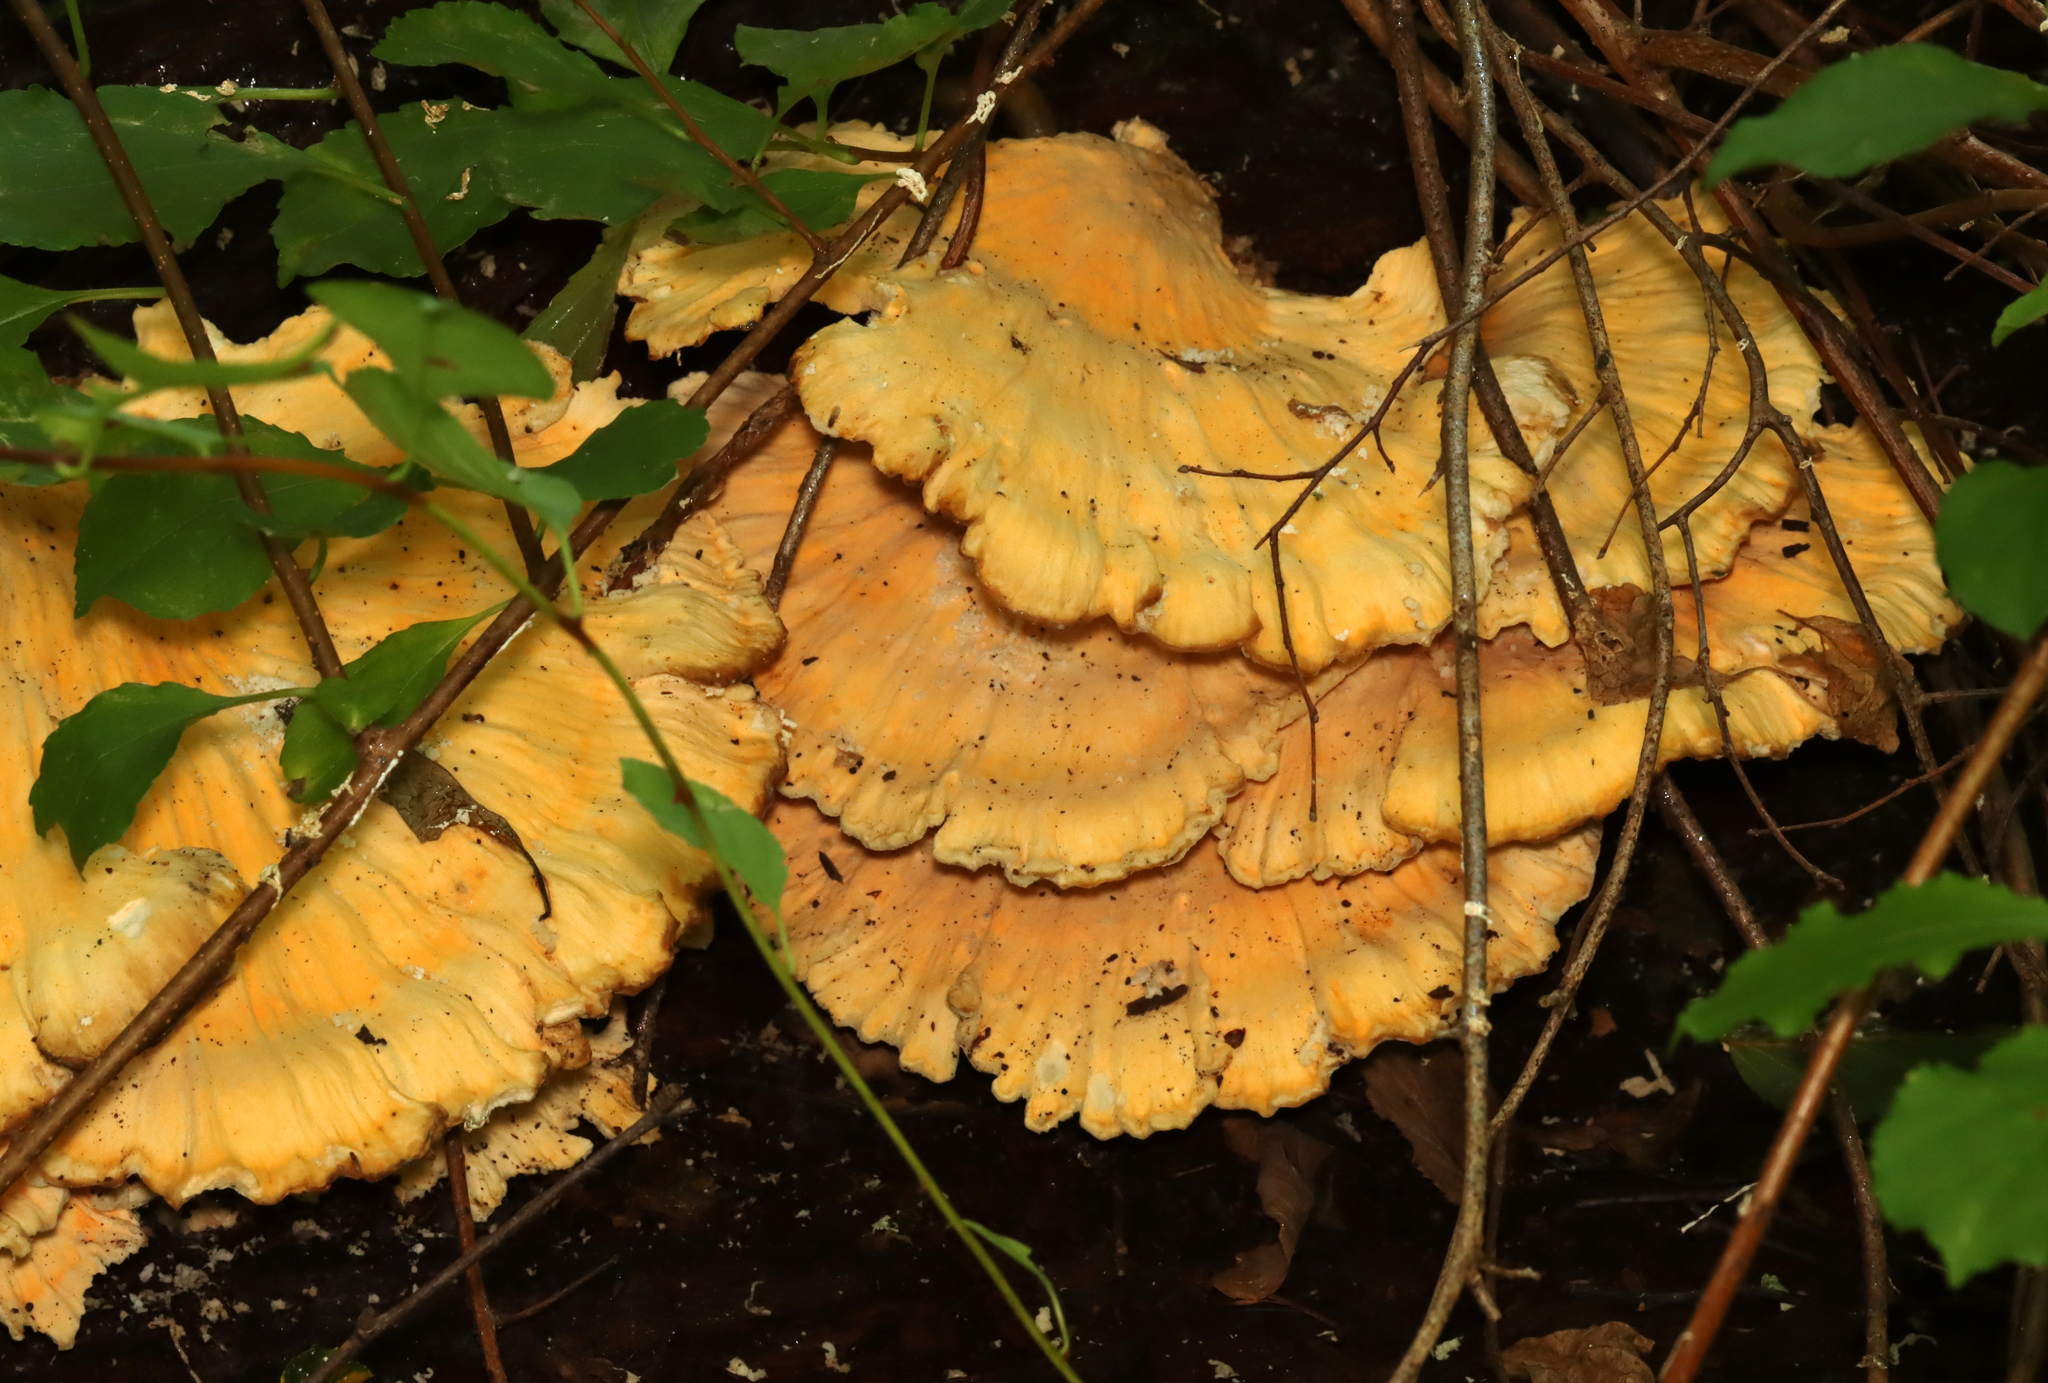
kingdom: Fungi
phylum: Basidiomycota
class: Agaricomycetes
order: Polyporales
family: Laetiporaceae
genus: Laetiporus
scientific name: Laetiporus sulphureus
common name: Chicken of the woods
